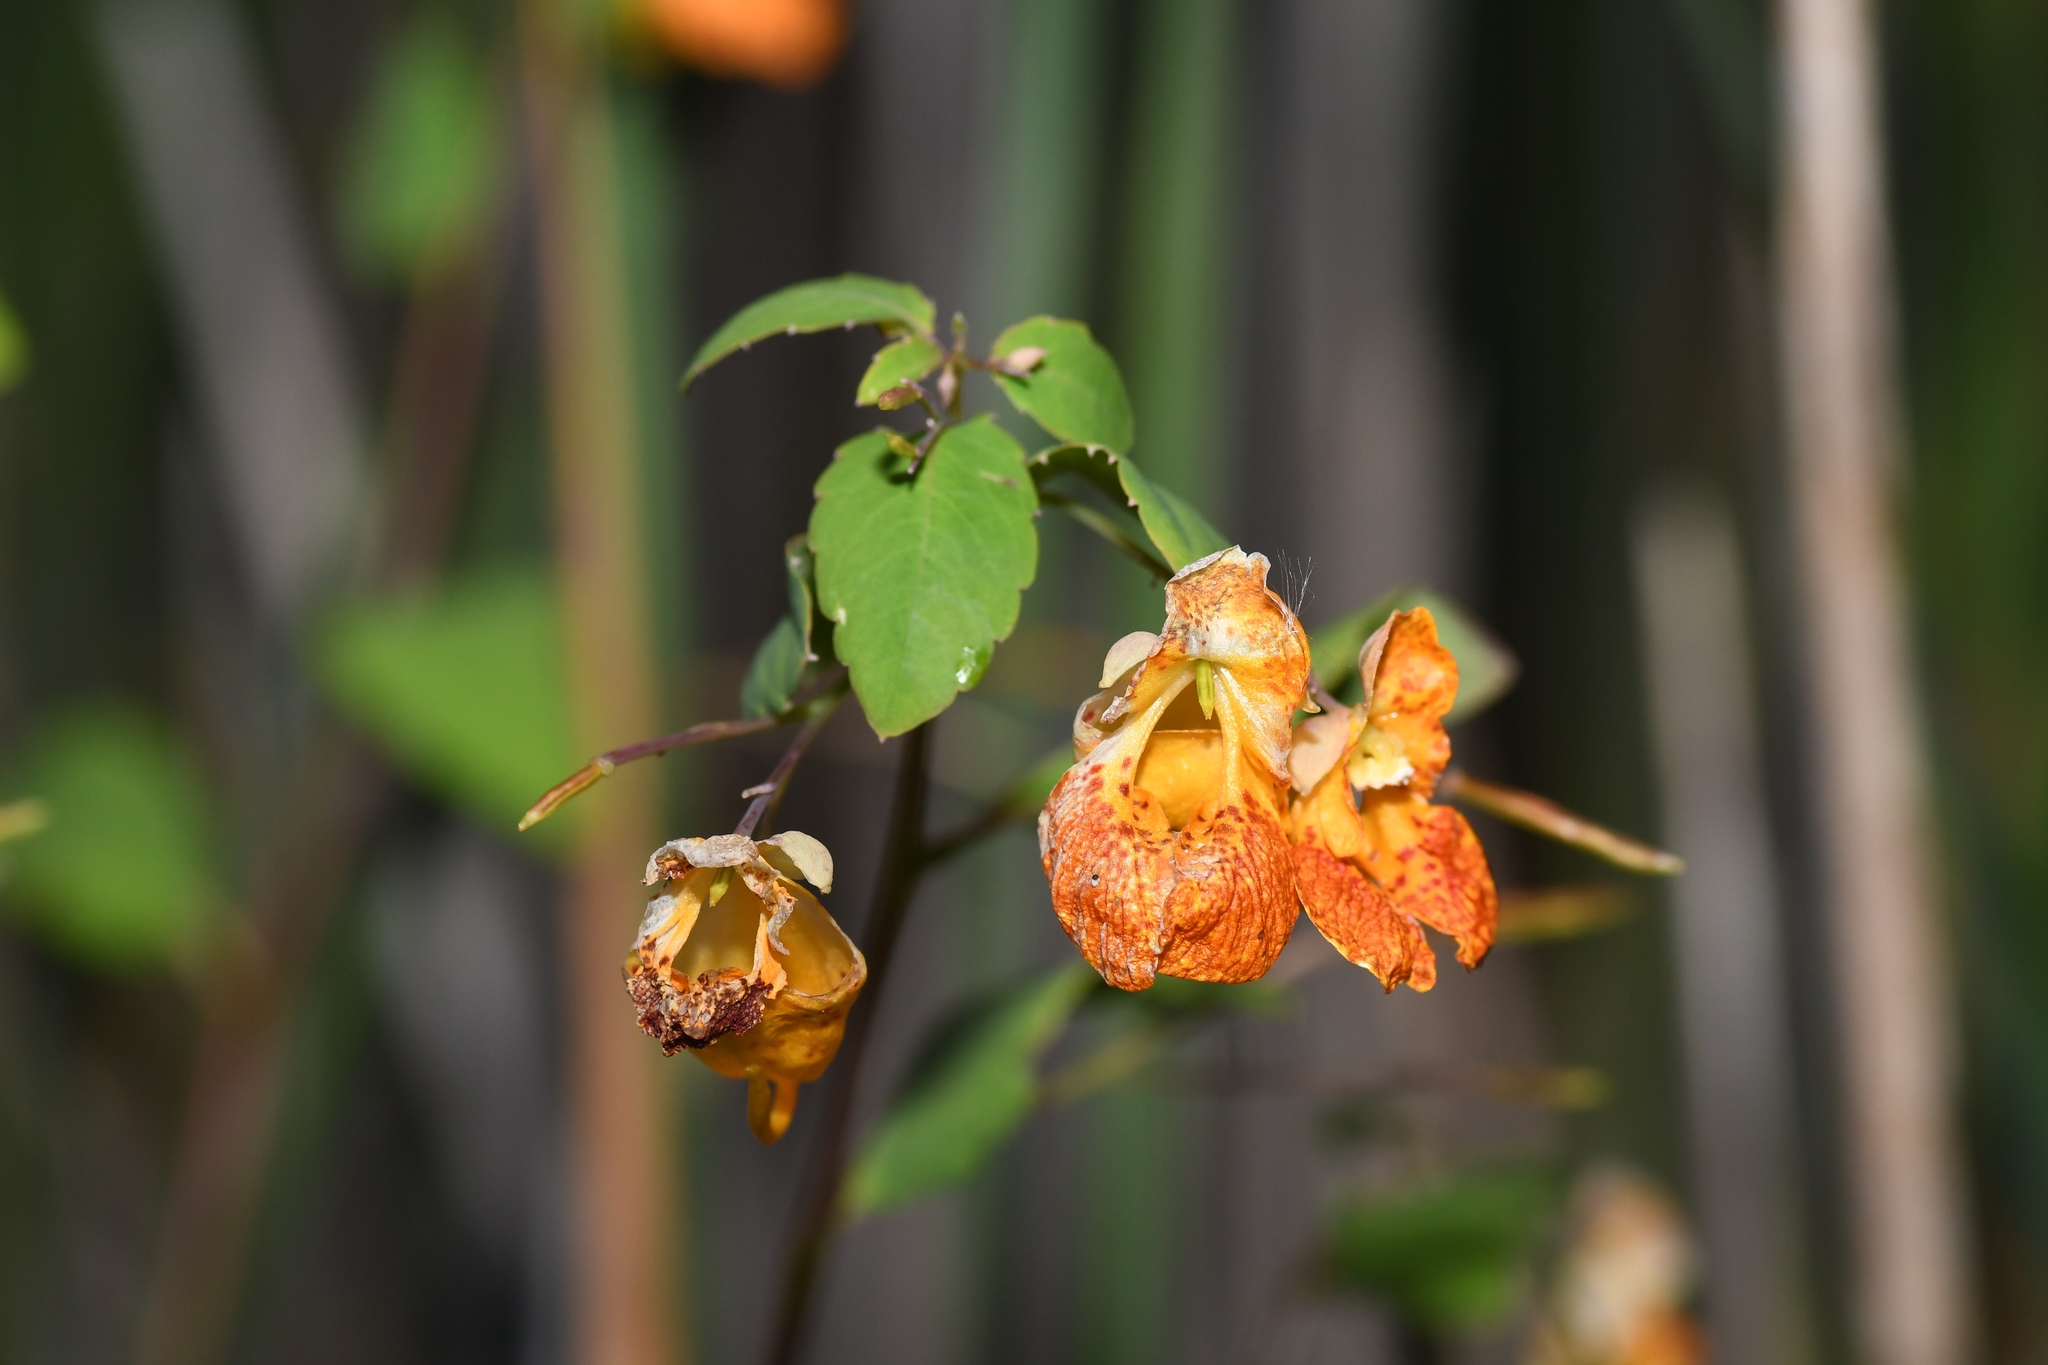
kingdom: Plantae
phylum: Tracheophyta
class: Magnoliopsida
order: Ericales
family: Balsaminaceae
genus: Impatiens
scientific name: Impatiens capensis
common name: Orange balsam
